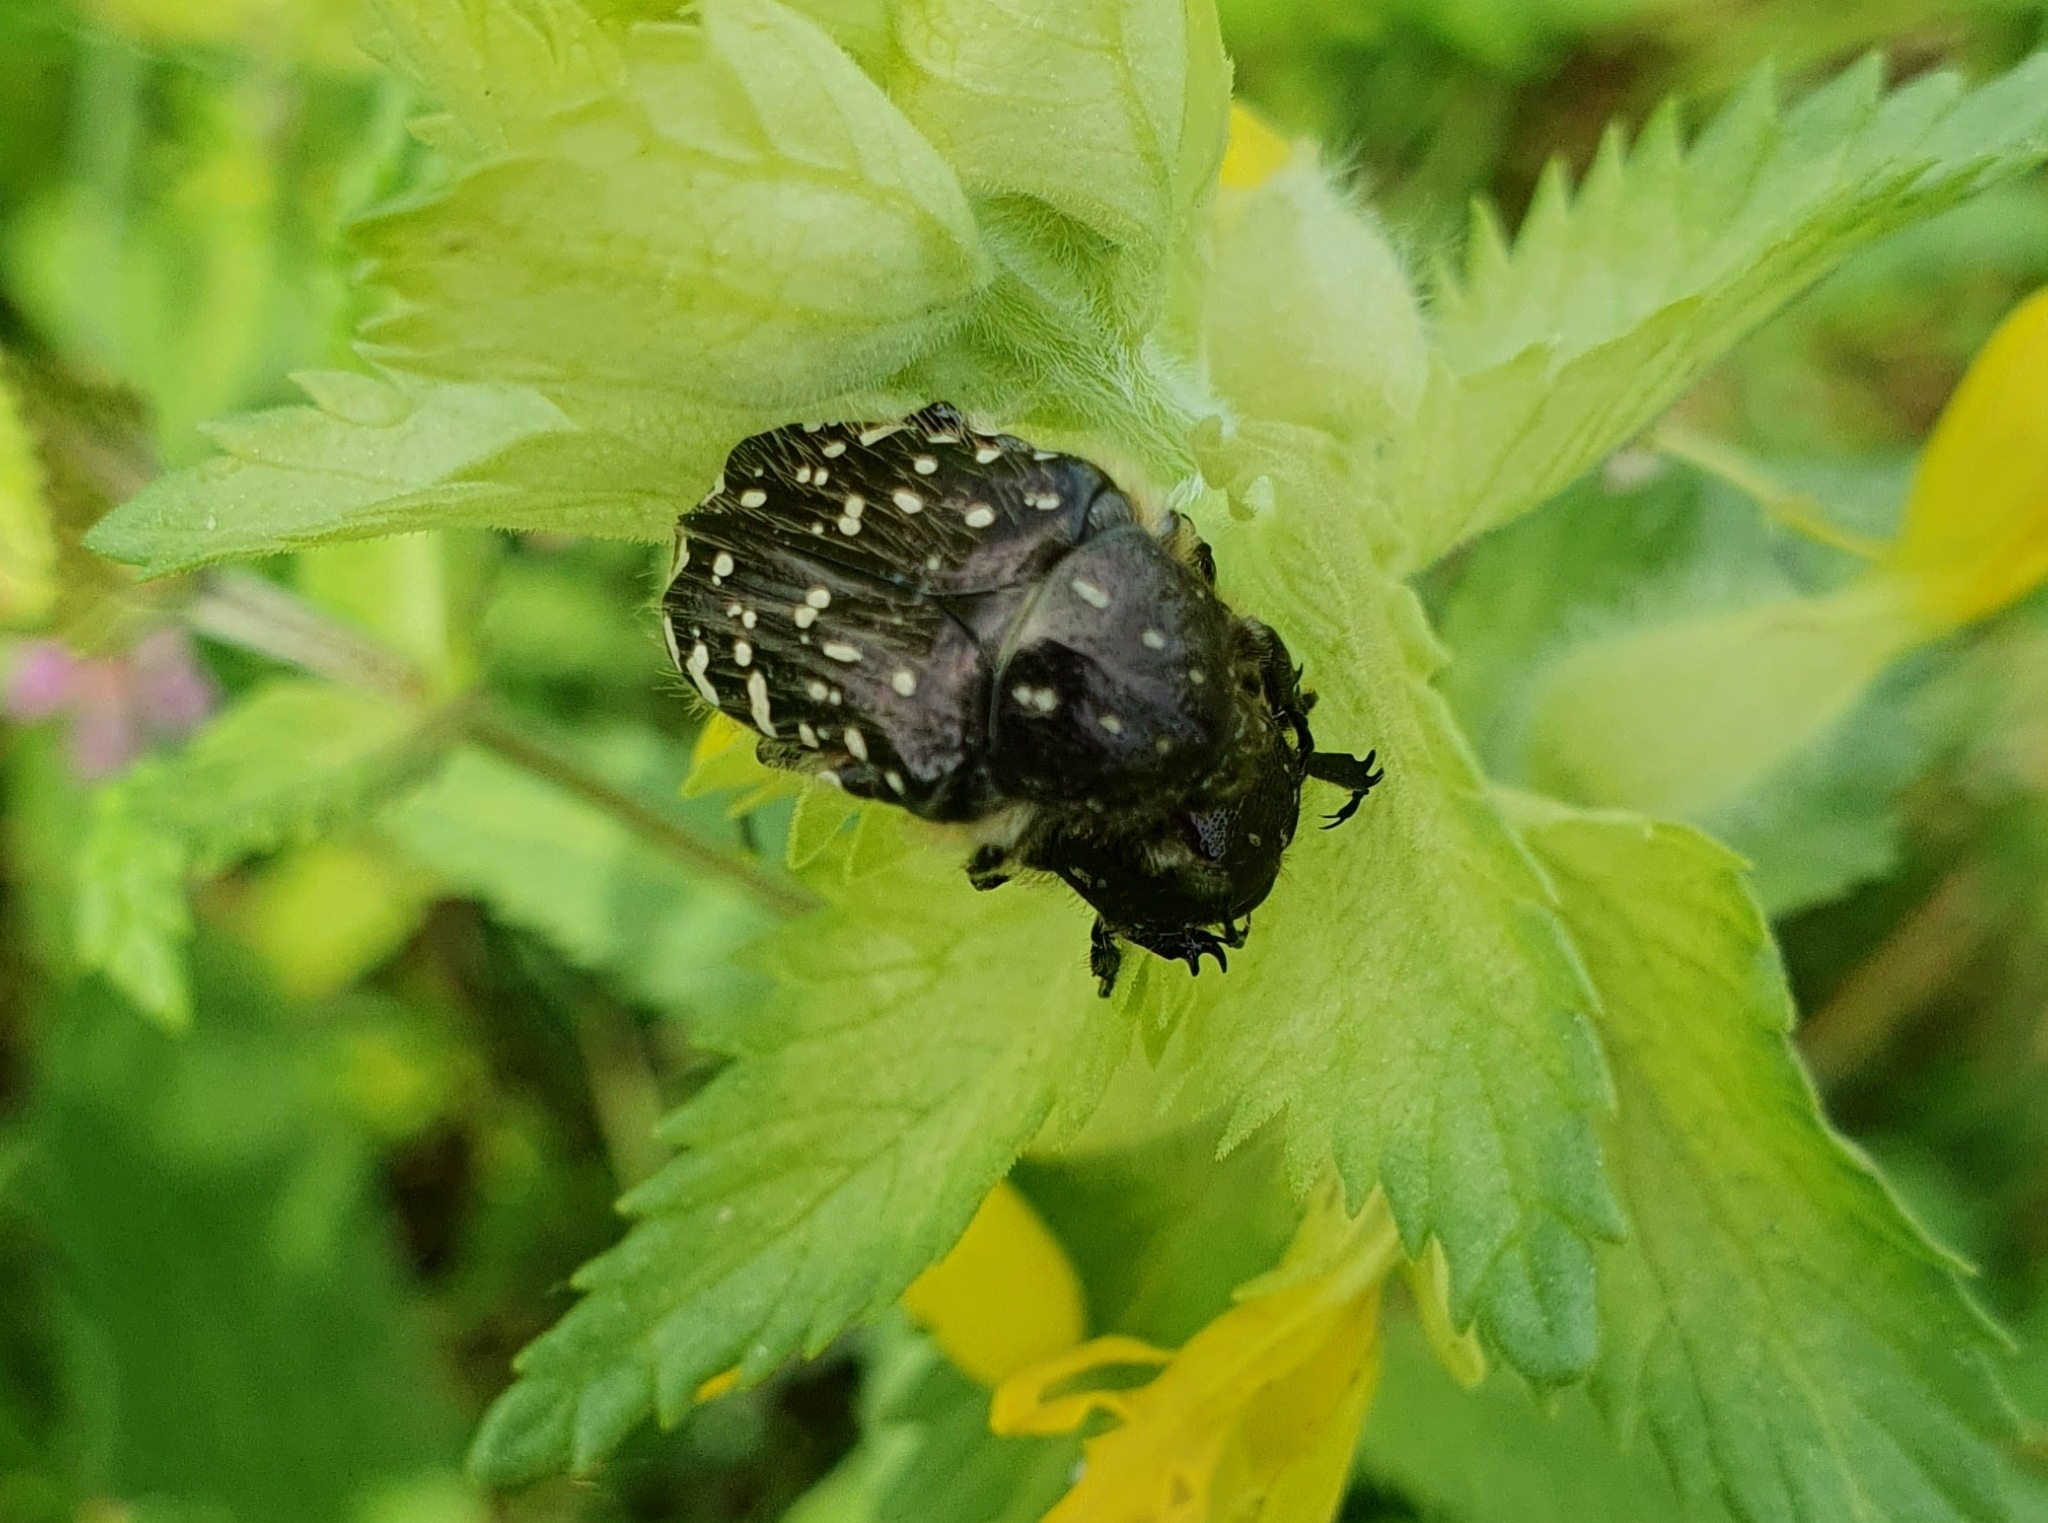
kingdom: Animalia
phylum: Arthropoda
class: Insecta
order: Coleoptera
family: Scarabaeidae
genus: Oxythyrea
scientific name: Oxythyrea funesta
